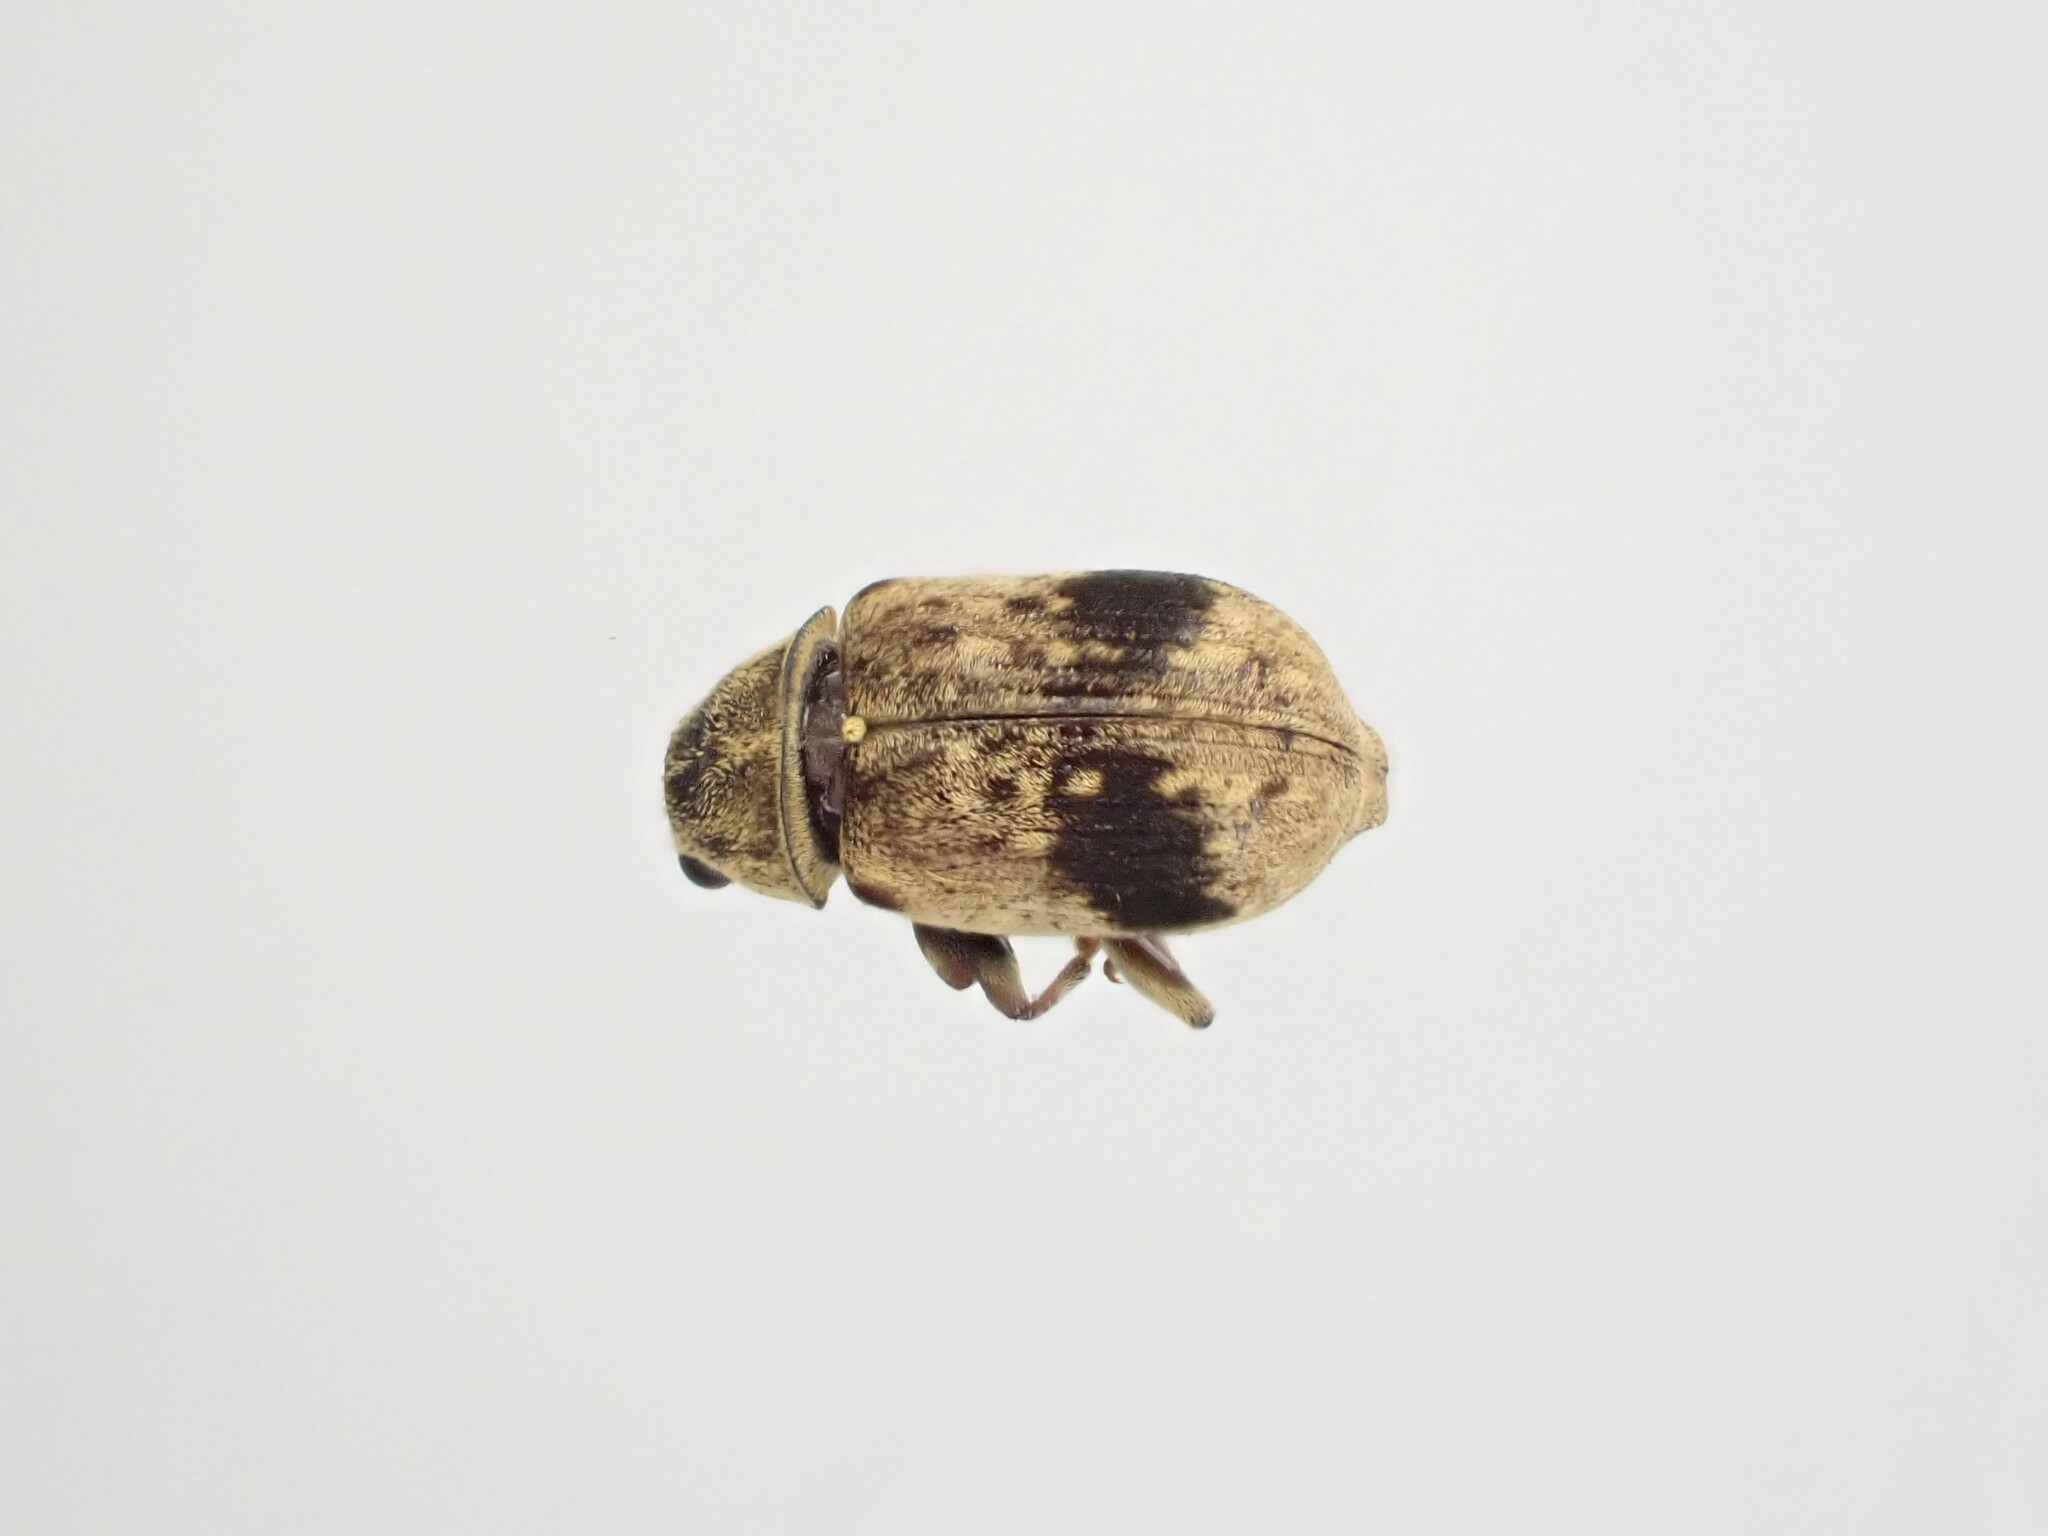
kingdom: Animalia
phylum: Arthropoda
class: Insecta
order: Coleoptera
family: Anthribidae
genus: Cacephatus
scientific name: Cacephatus huttoni
